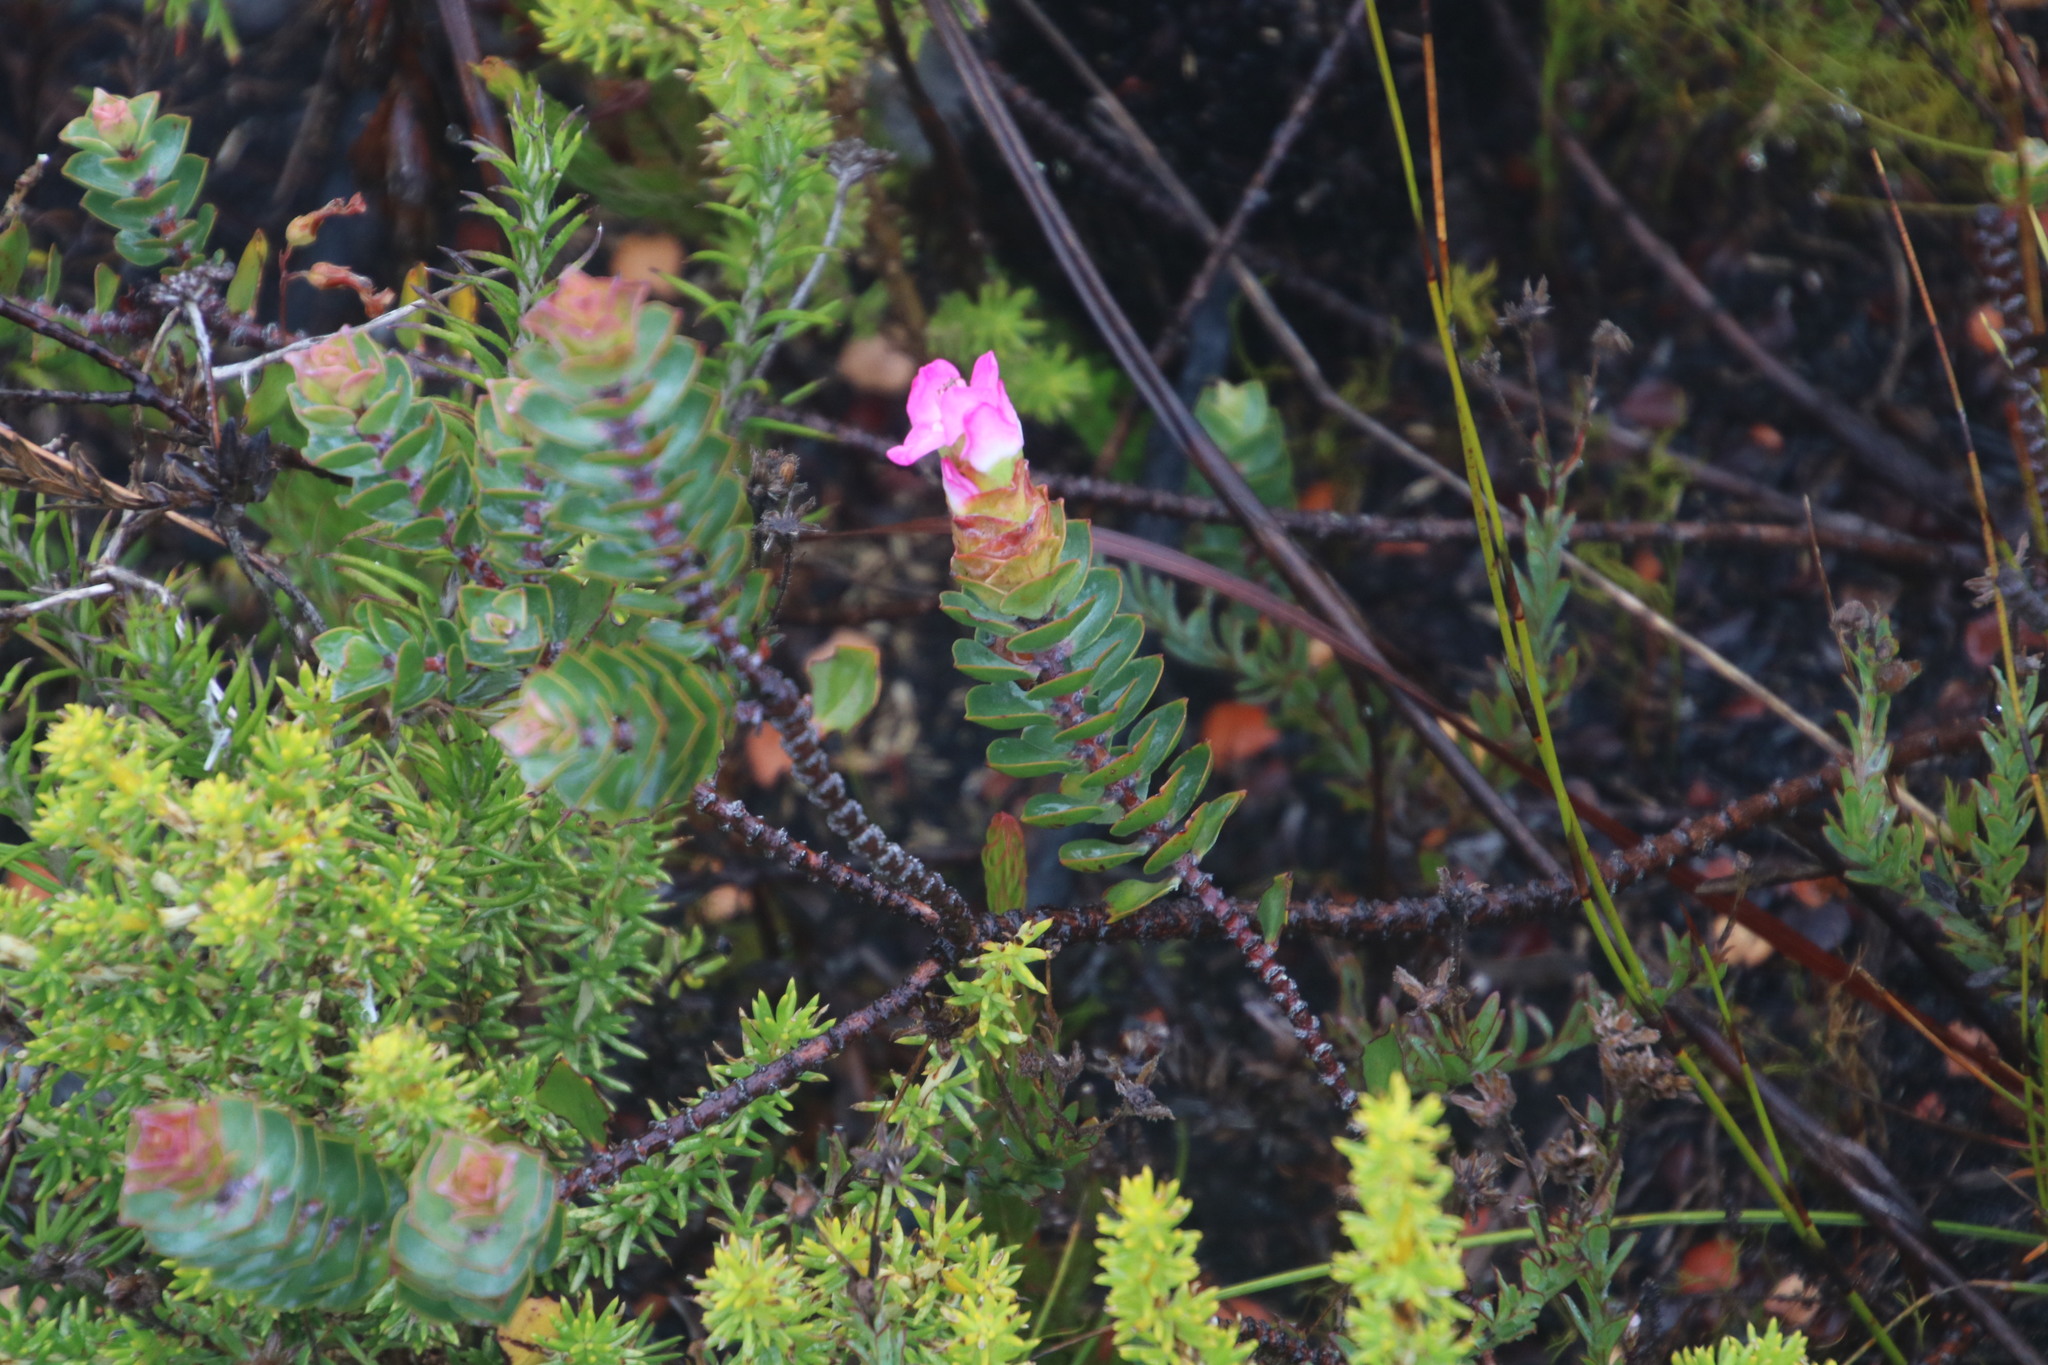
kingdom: Plantae
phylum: Tracheophyta
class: Magnoliopsida
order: Myrtales
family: Penaeaceae
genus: Saltera
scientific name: Saltera sarcocolla
